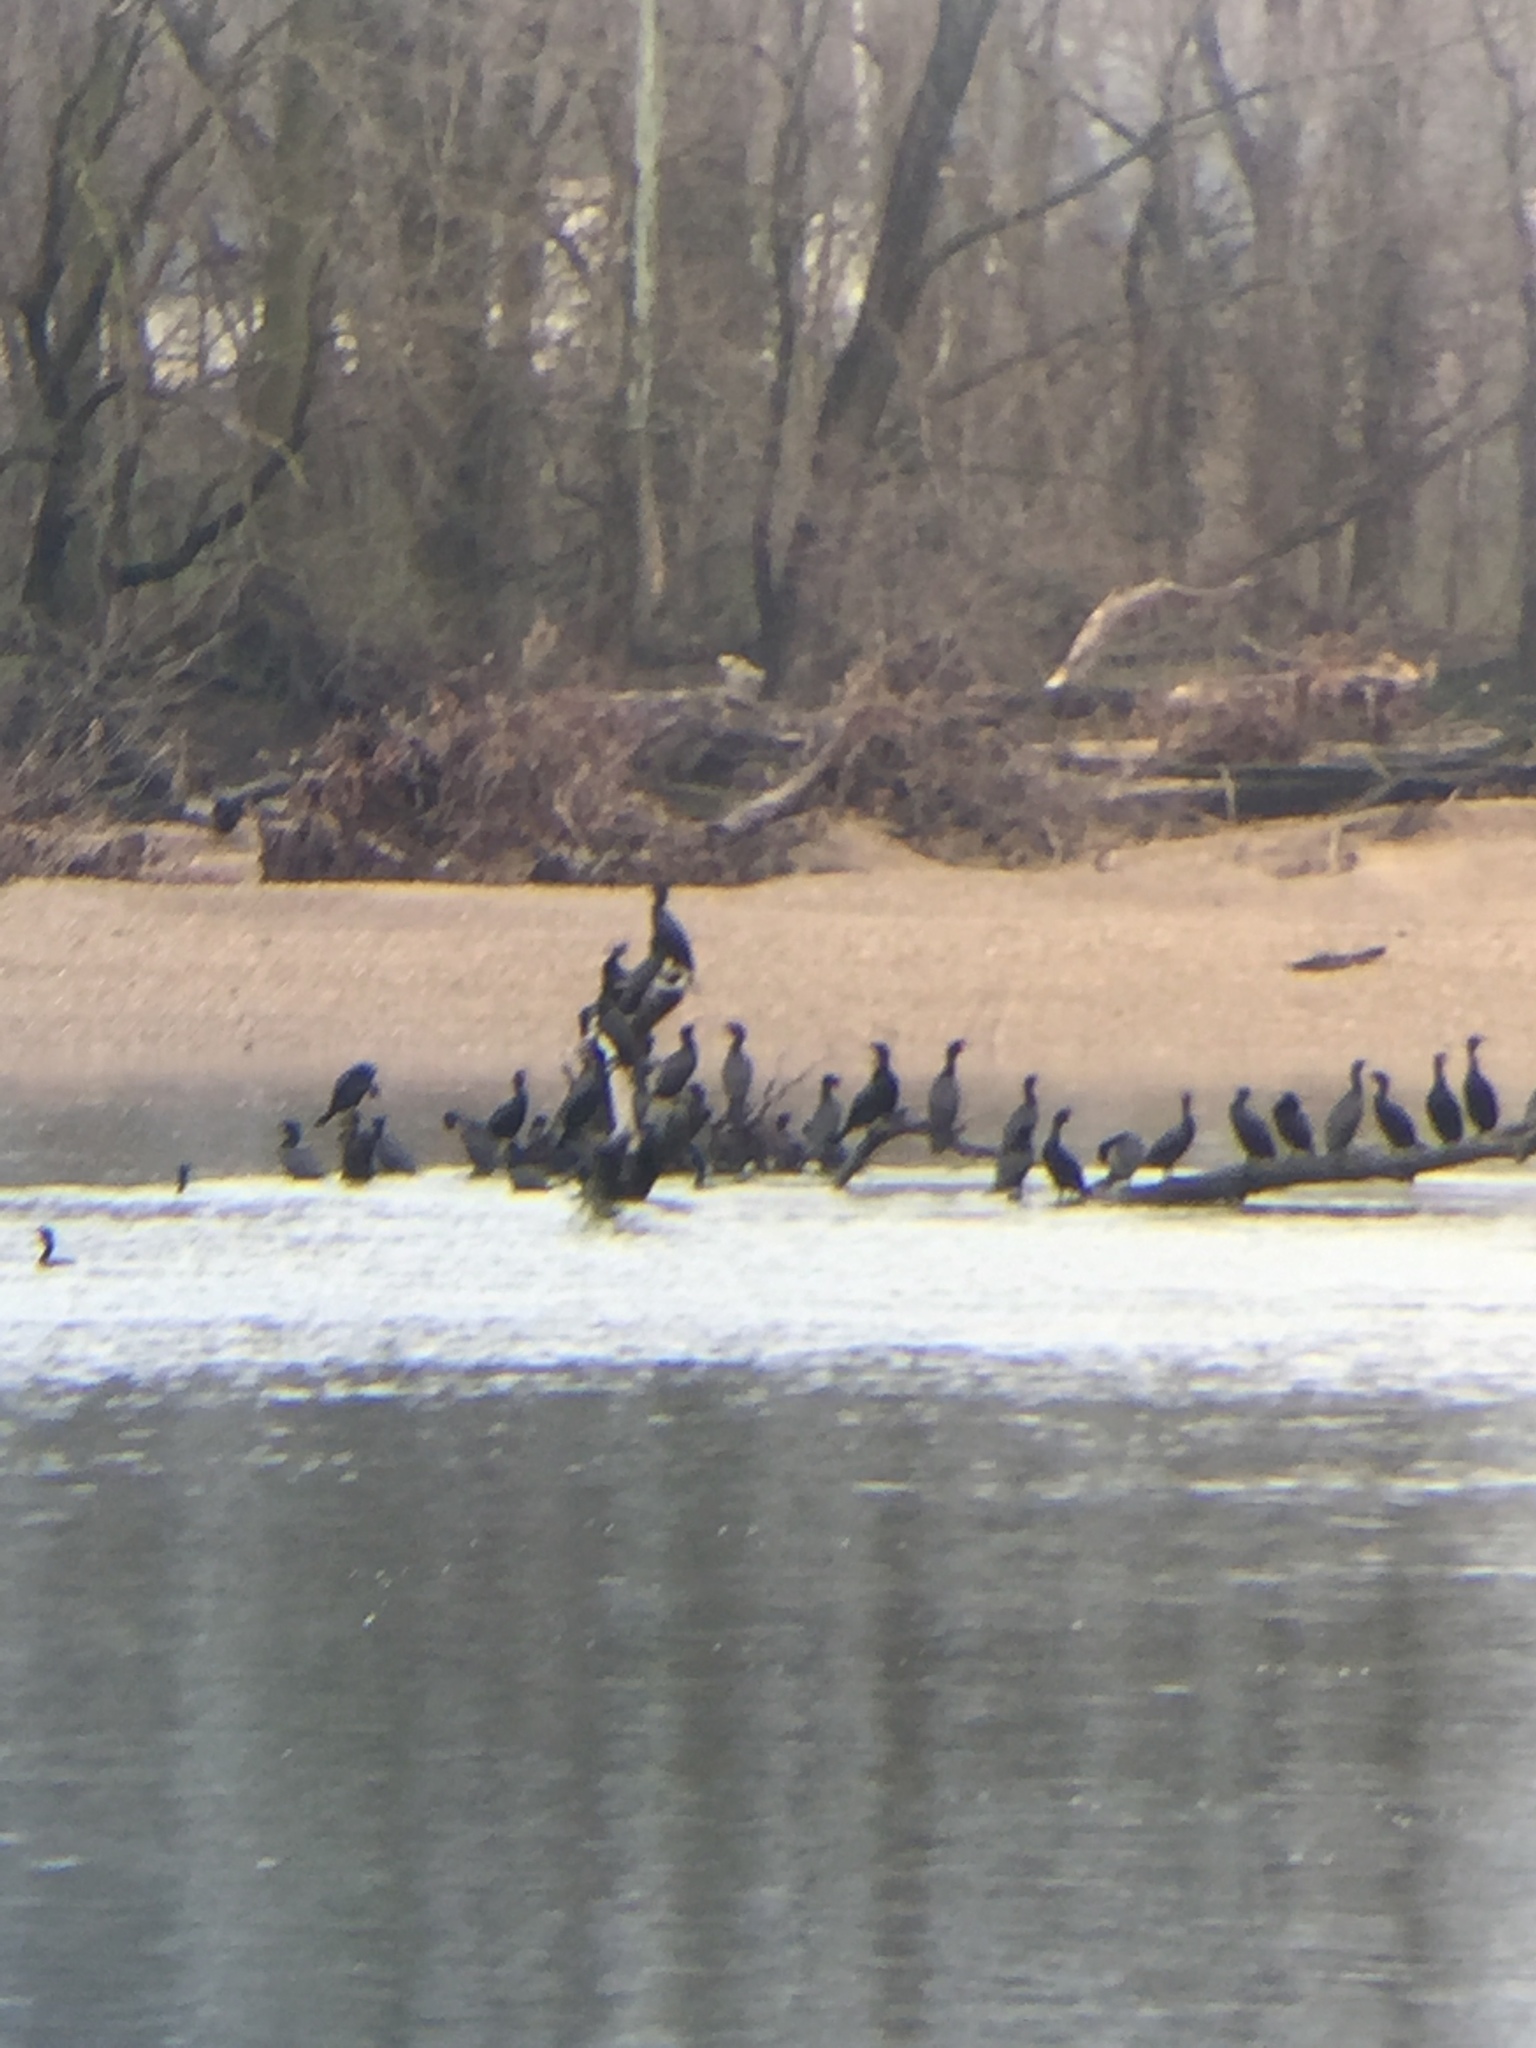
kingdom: Animalia
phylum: Chordata
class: Aves
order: Suliformes
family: Phalacrocoracidae
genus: Phalacrocorax
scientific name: Phalacrocorax auritus
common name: Double-crested cormorant
